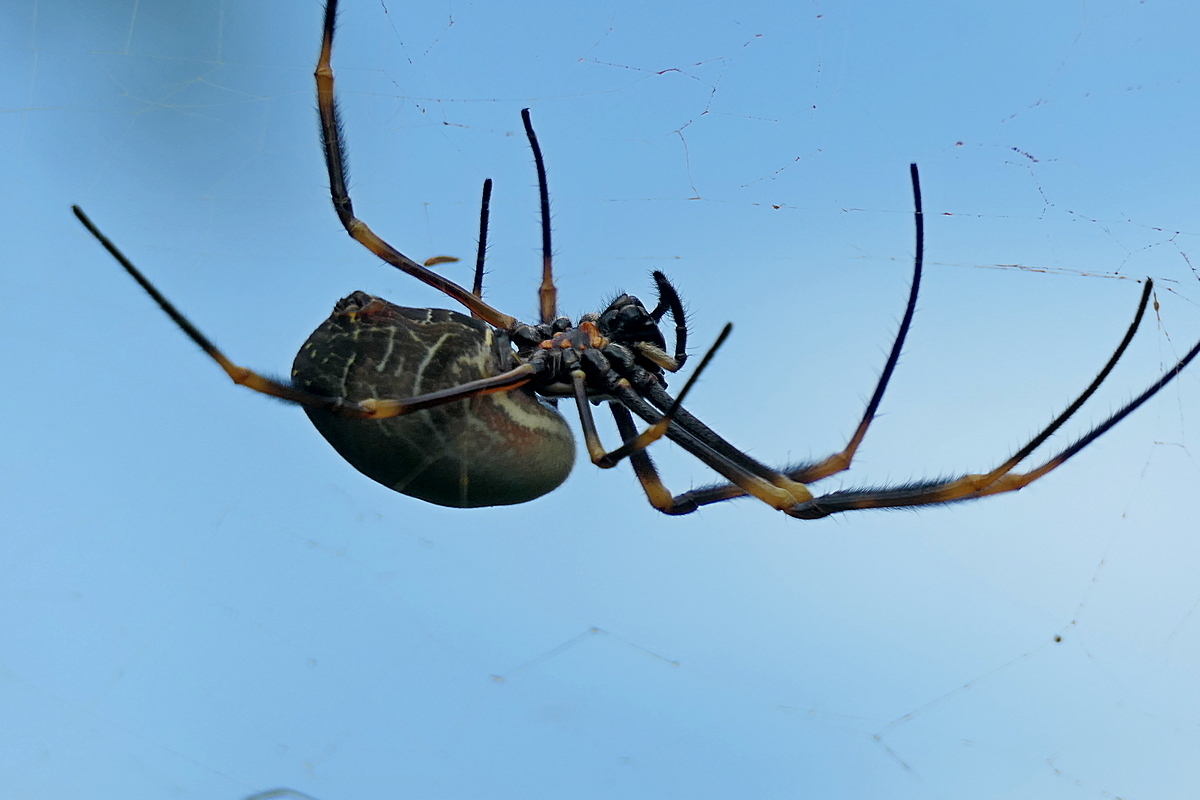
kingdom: Animalia
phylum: Arthropoda
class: Arachnida
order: Araneae
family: Araneidae
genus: Trichonephila
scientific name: Trichonephila plumipes
